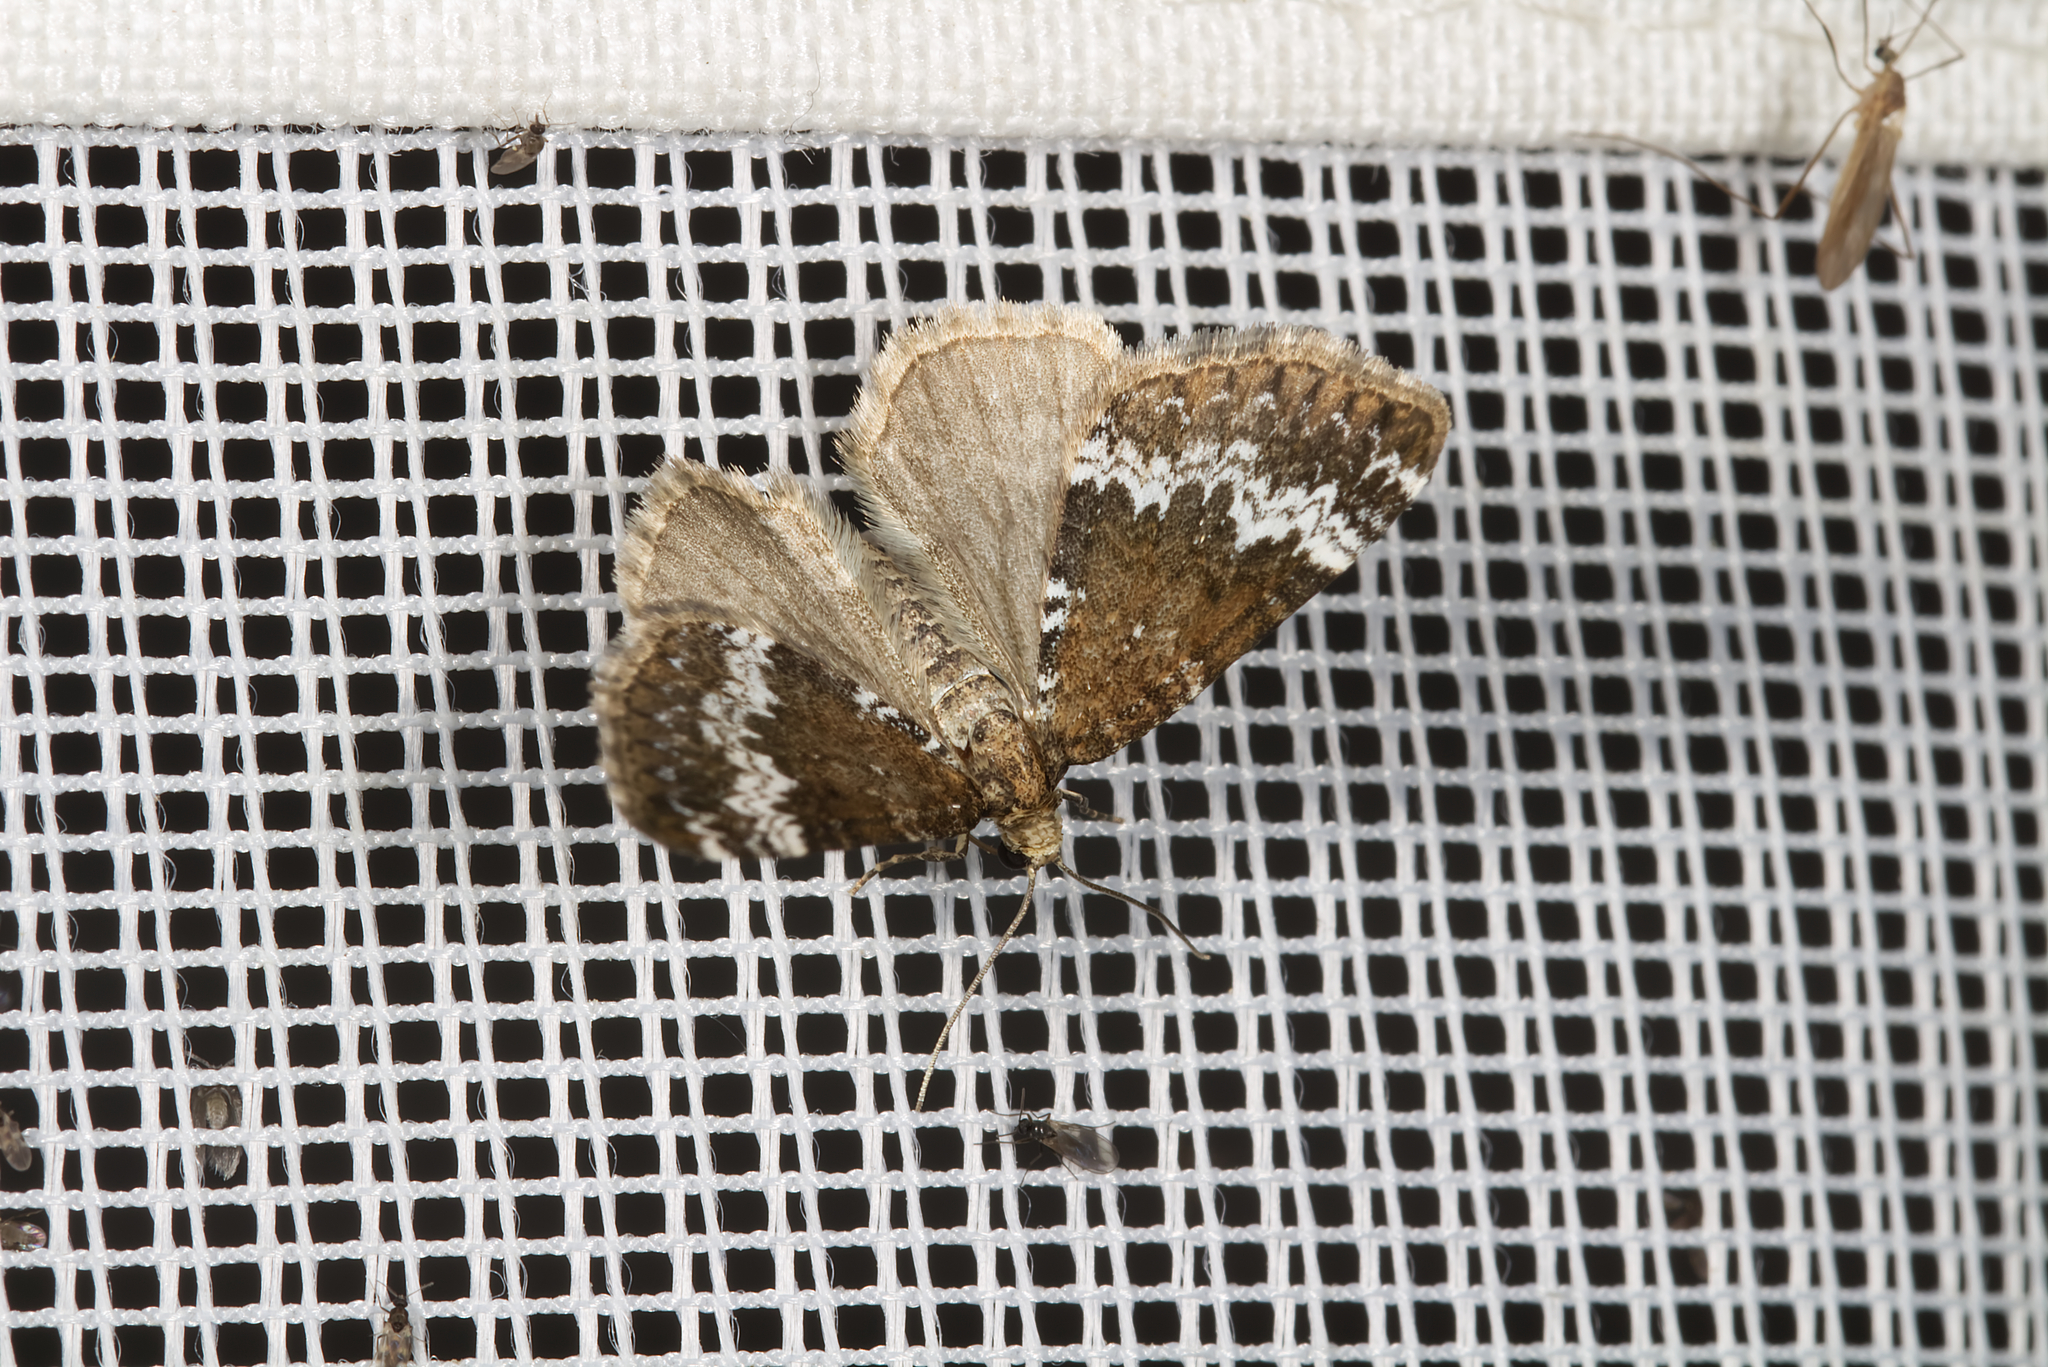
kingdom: Animalia
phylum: Arthropoda
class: Insecta
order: Lepidoptera
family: Geometridae
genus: Perizoma
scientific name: Perizoma alchemillata
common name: Small rivulet
